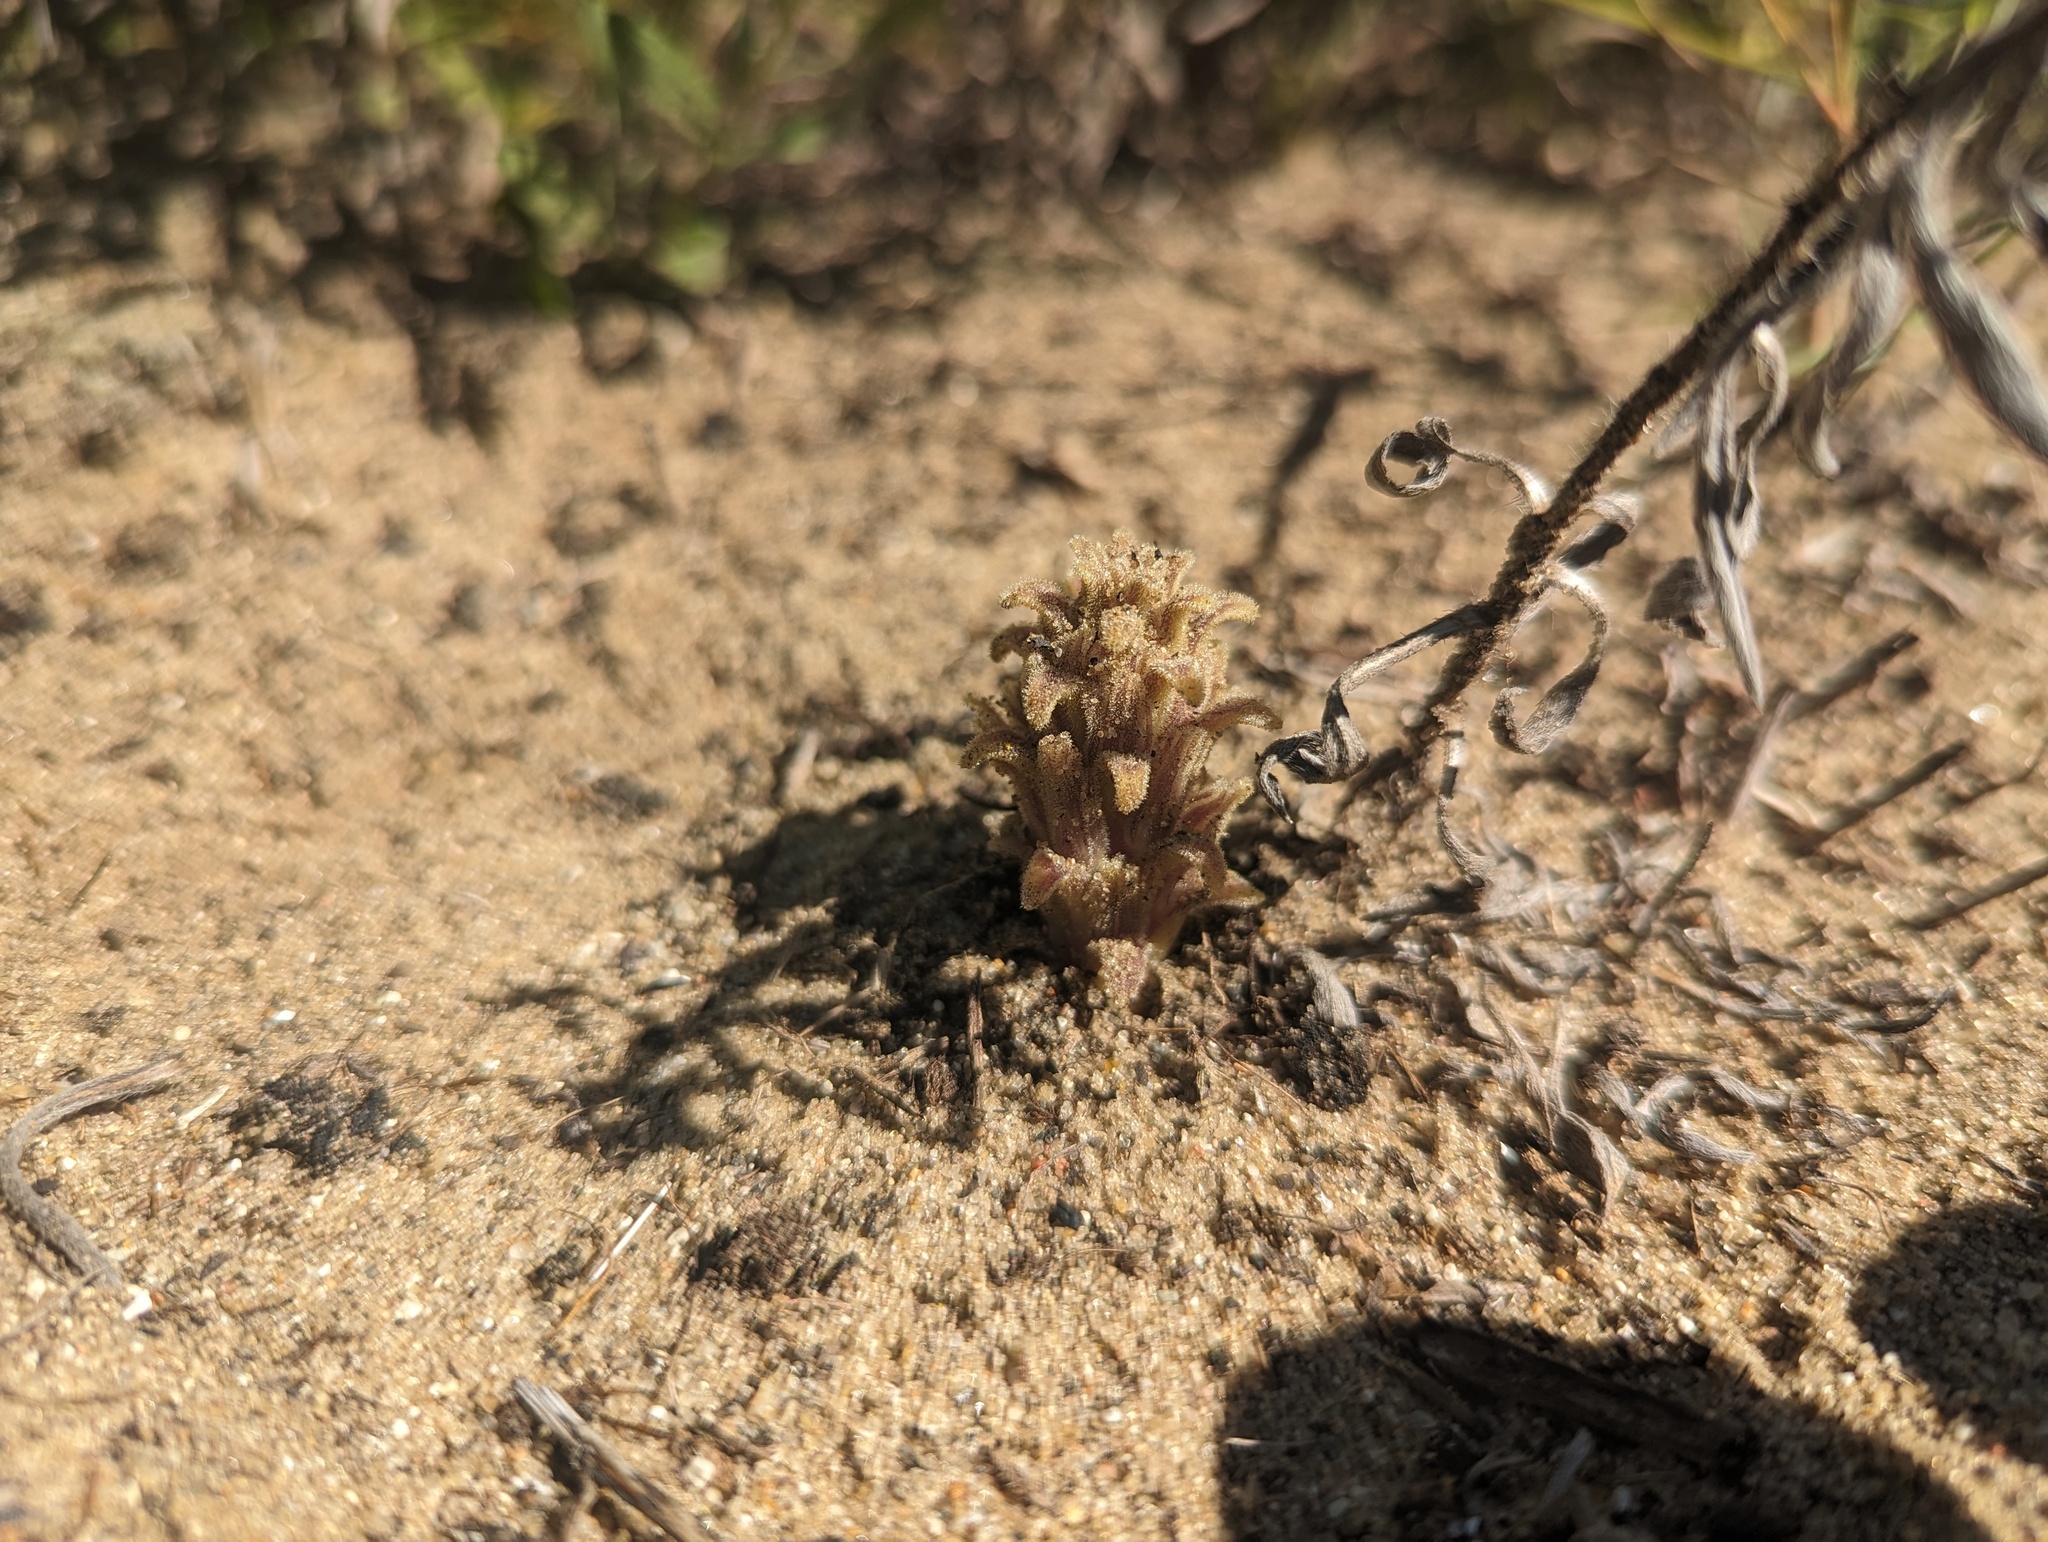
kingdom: Plantae
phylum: Tracheophyta
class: Magnoliopsida
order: Lamiales
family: Orobanchaceae
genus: Aphyllon
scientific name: Aphyllon ludovicianum
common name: Louisiana broomrape
